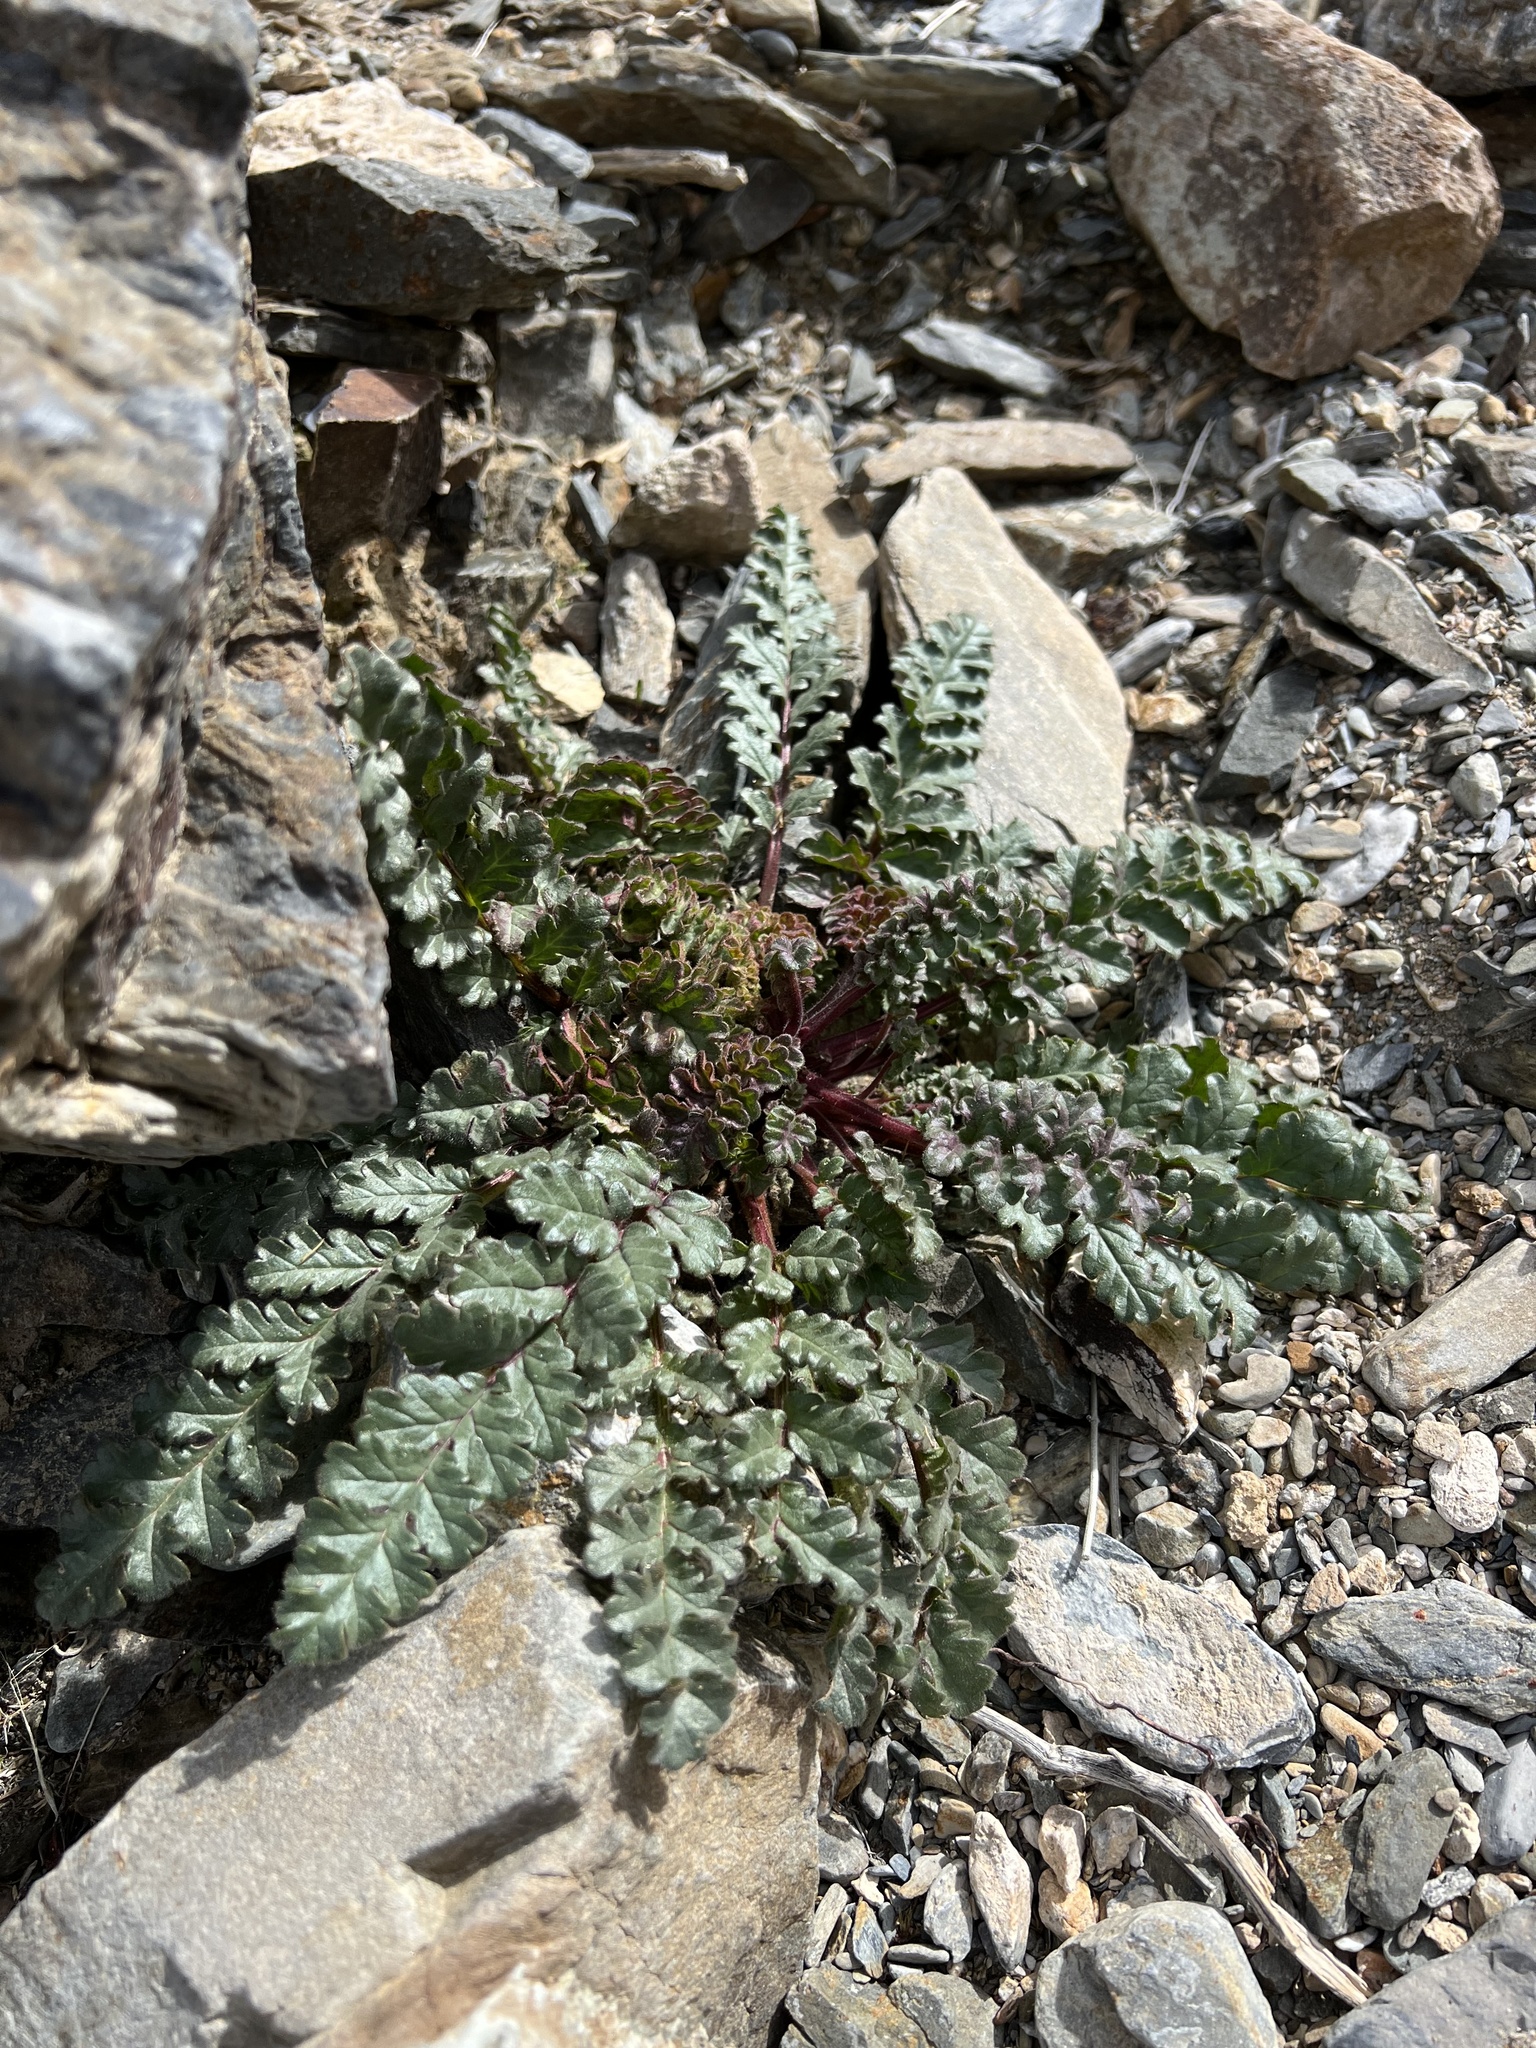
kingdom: Plantae
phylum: Tracheophyta
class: Magnoliopsida
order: Boraginales
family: Hydrophyllaceae
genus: Phacelia
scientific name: Phacelia crenulata
